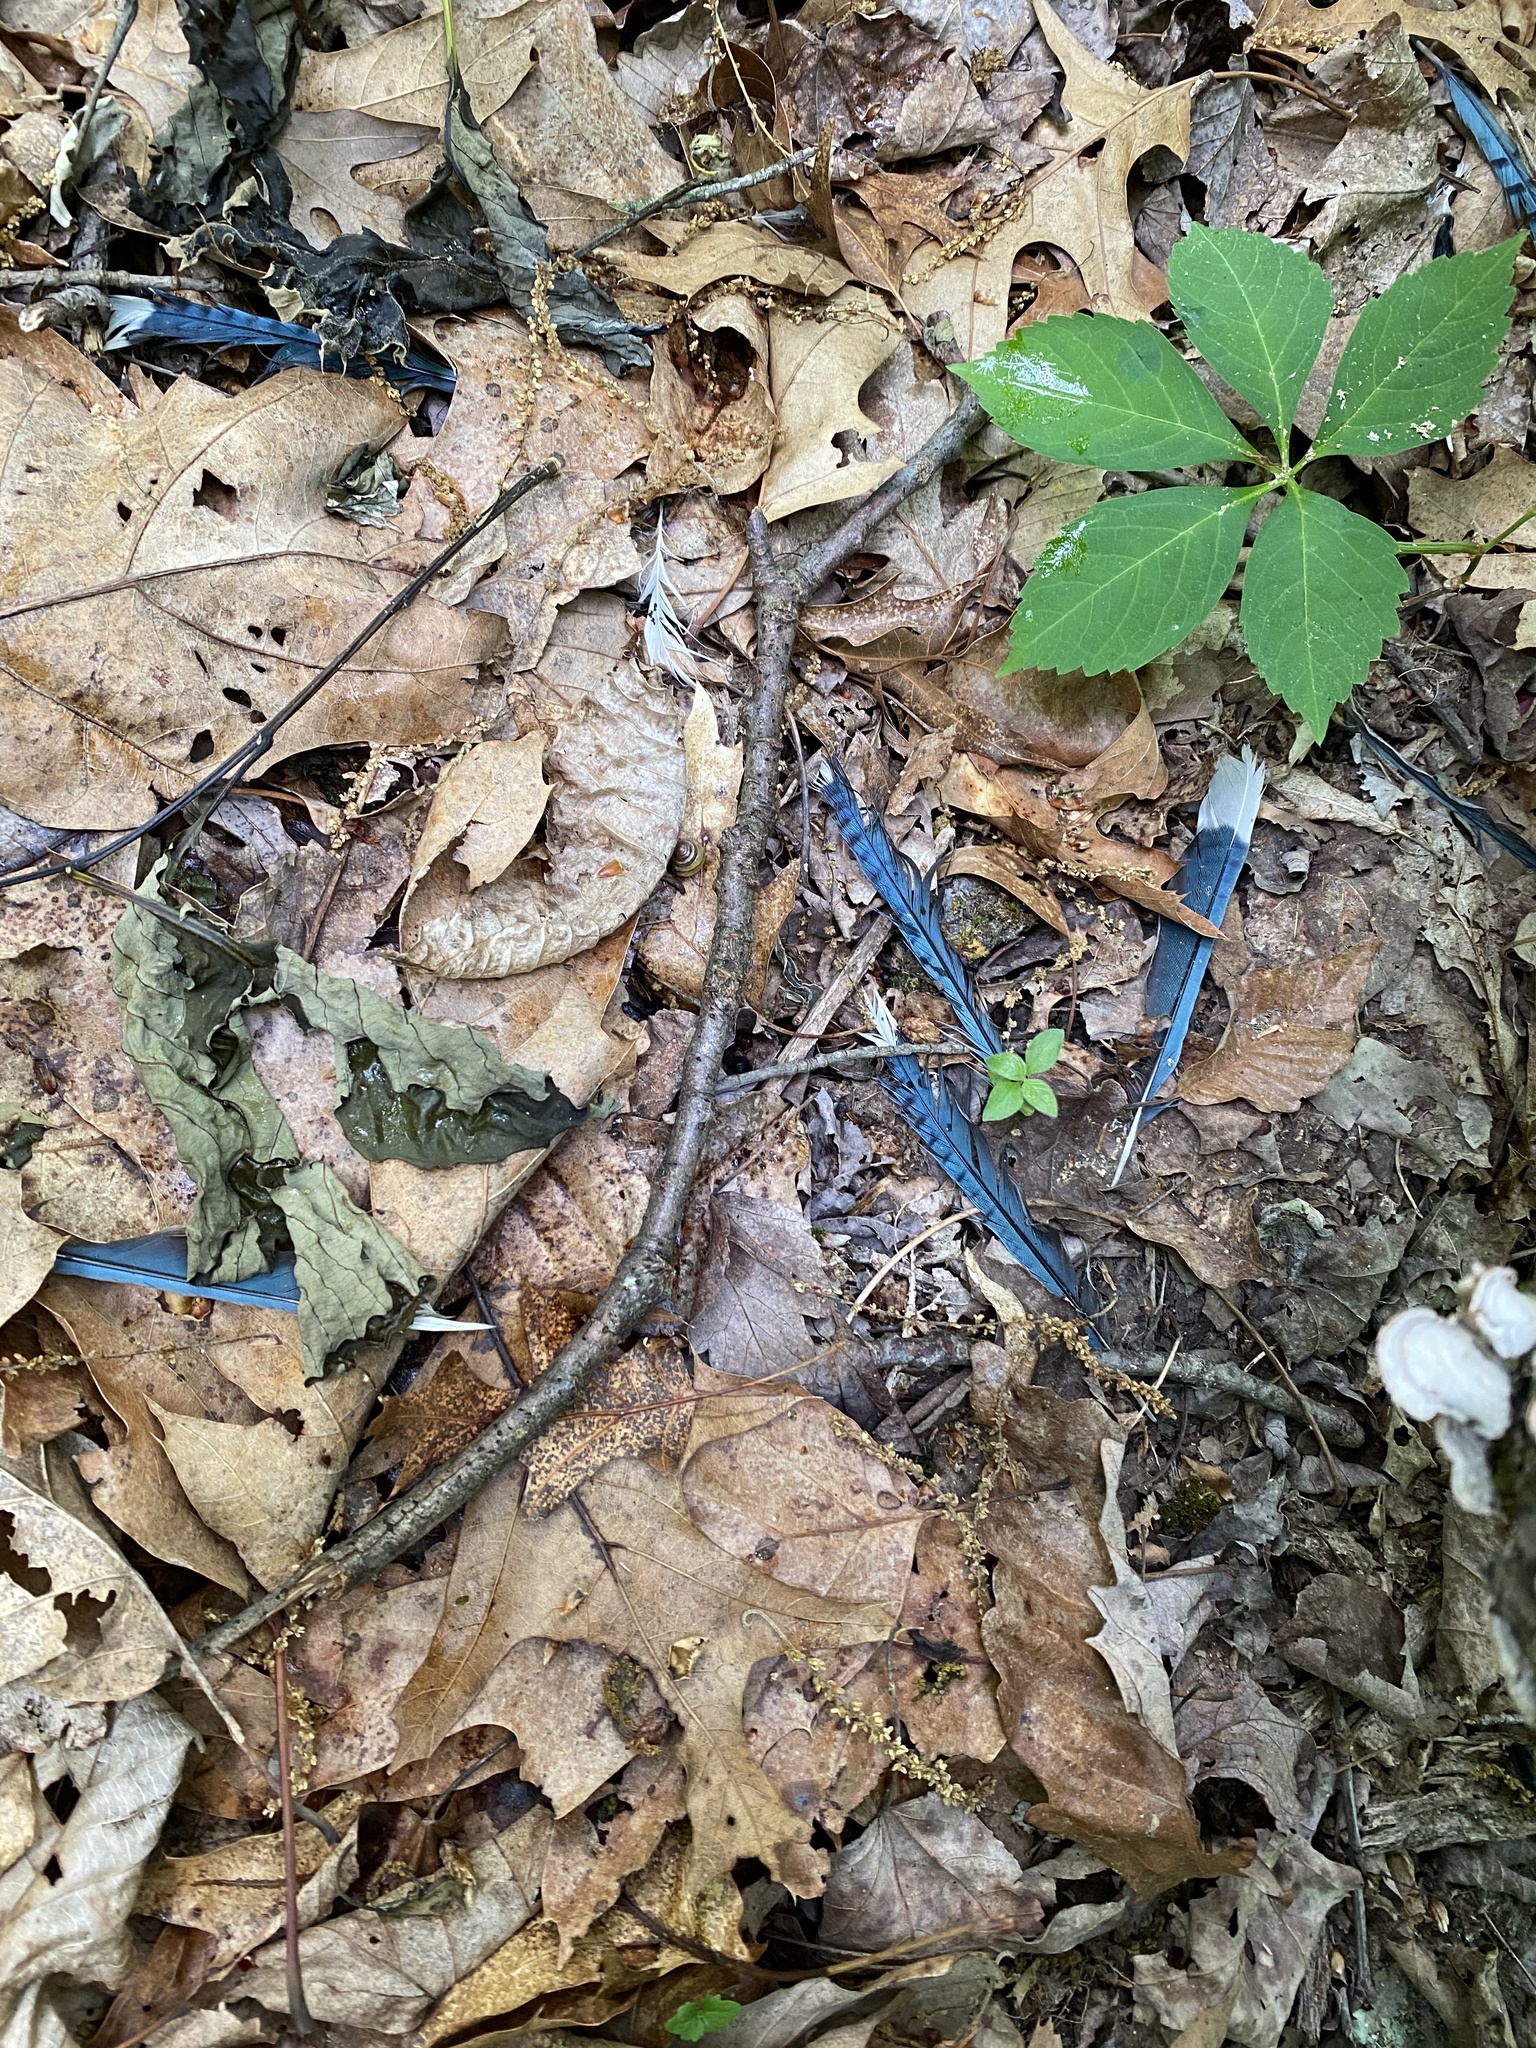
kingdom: Animalia
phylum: Chordata
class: Aves
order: Passeriformes
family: Corvidae
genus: Cyanocitta
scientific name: Cyanocitta cristata
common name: Blue jay
